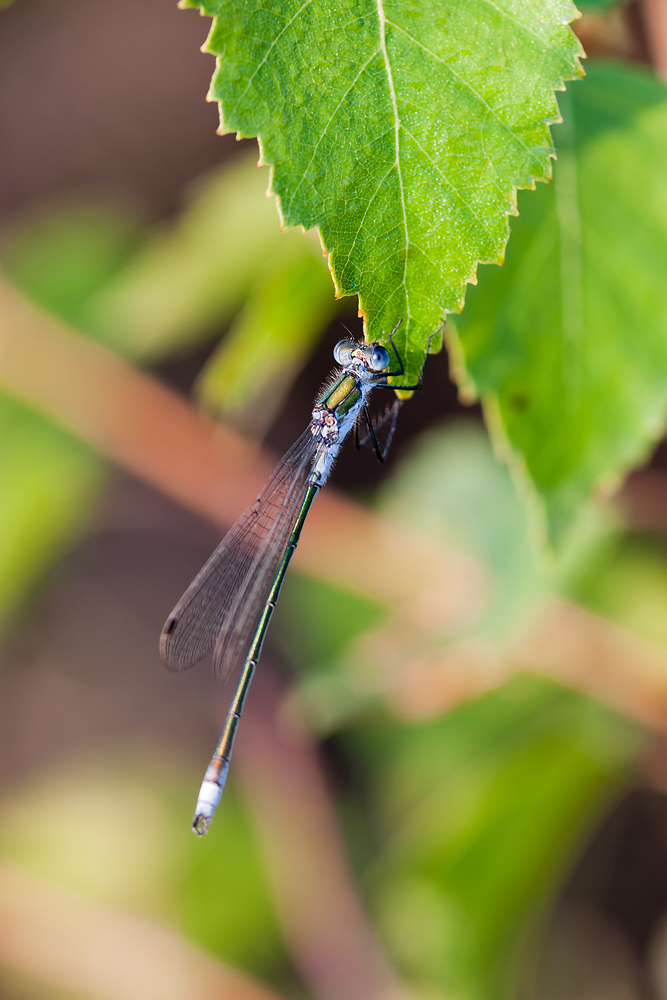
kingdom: Animalia
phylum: Arthropoda
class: Insecta
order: Odonata
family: Lestidae
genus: Lestes
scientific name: Lestes sponsa
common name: Common spreadwing
